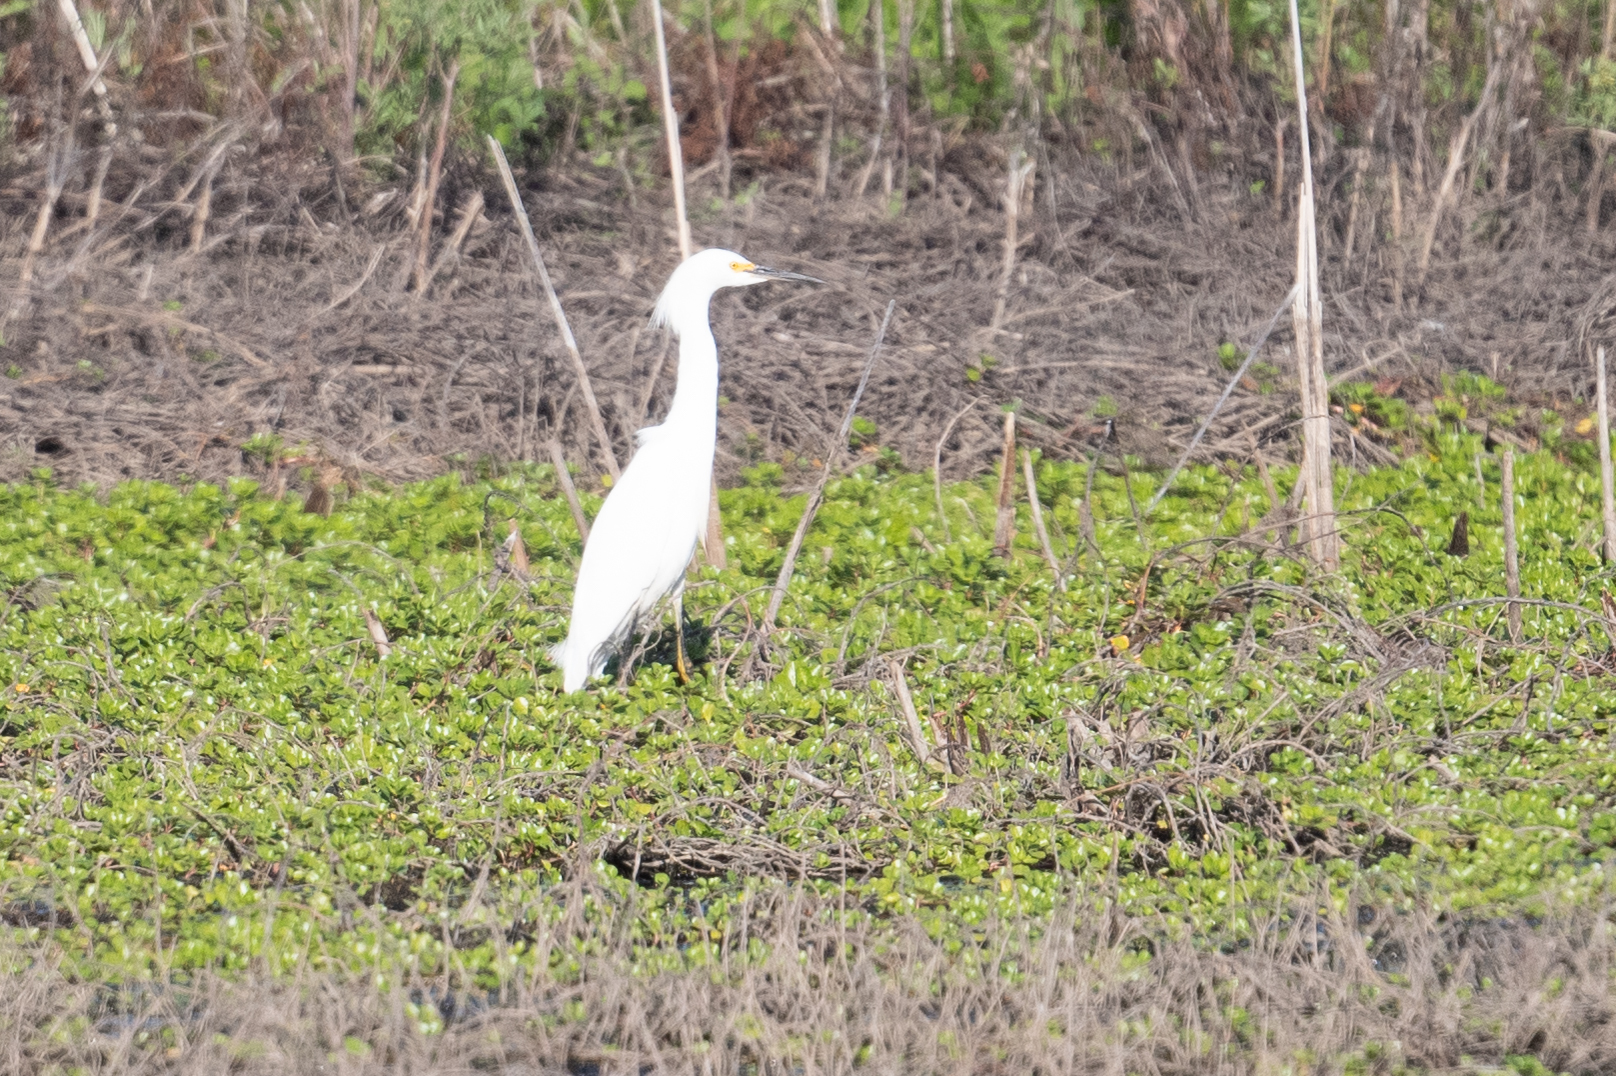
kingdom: Animalia
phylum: Chordata
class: Aves
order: Pelecaniformes
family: Ardeidae
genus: Egretta
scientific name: Egretta thula
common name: Snowy egret
